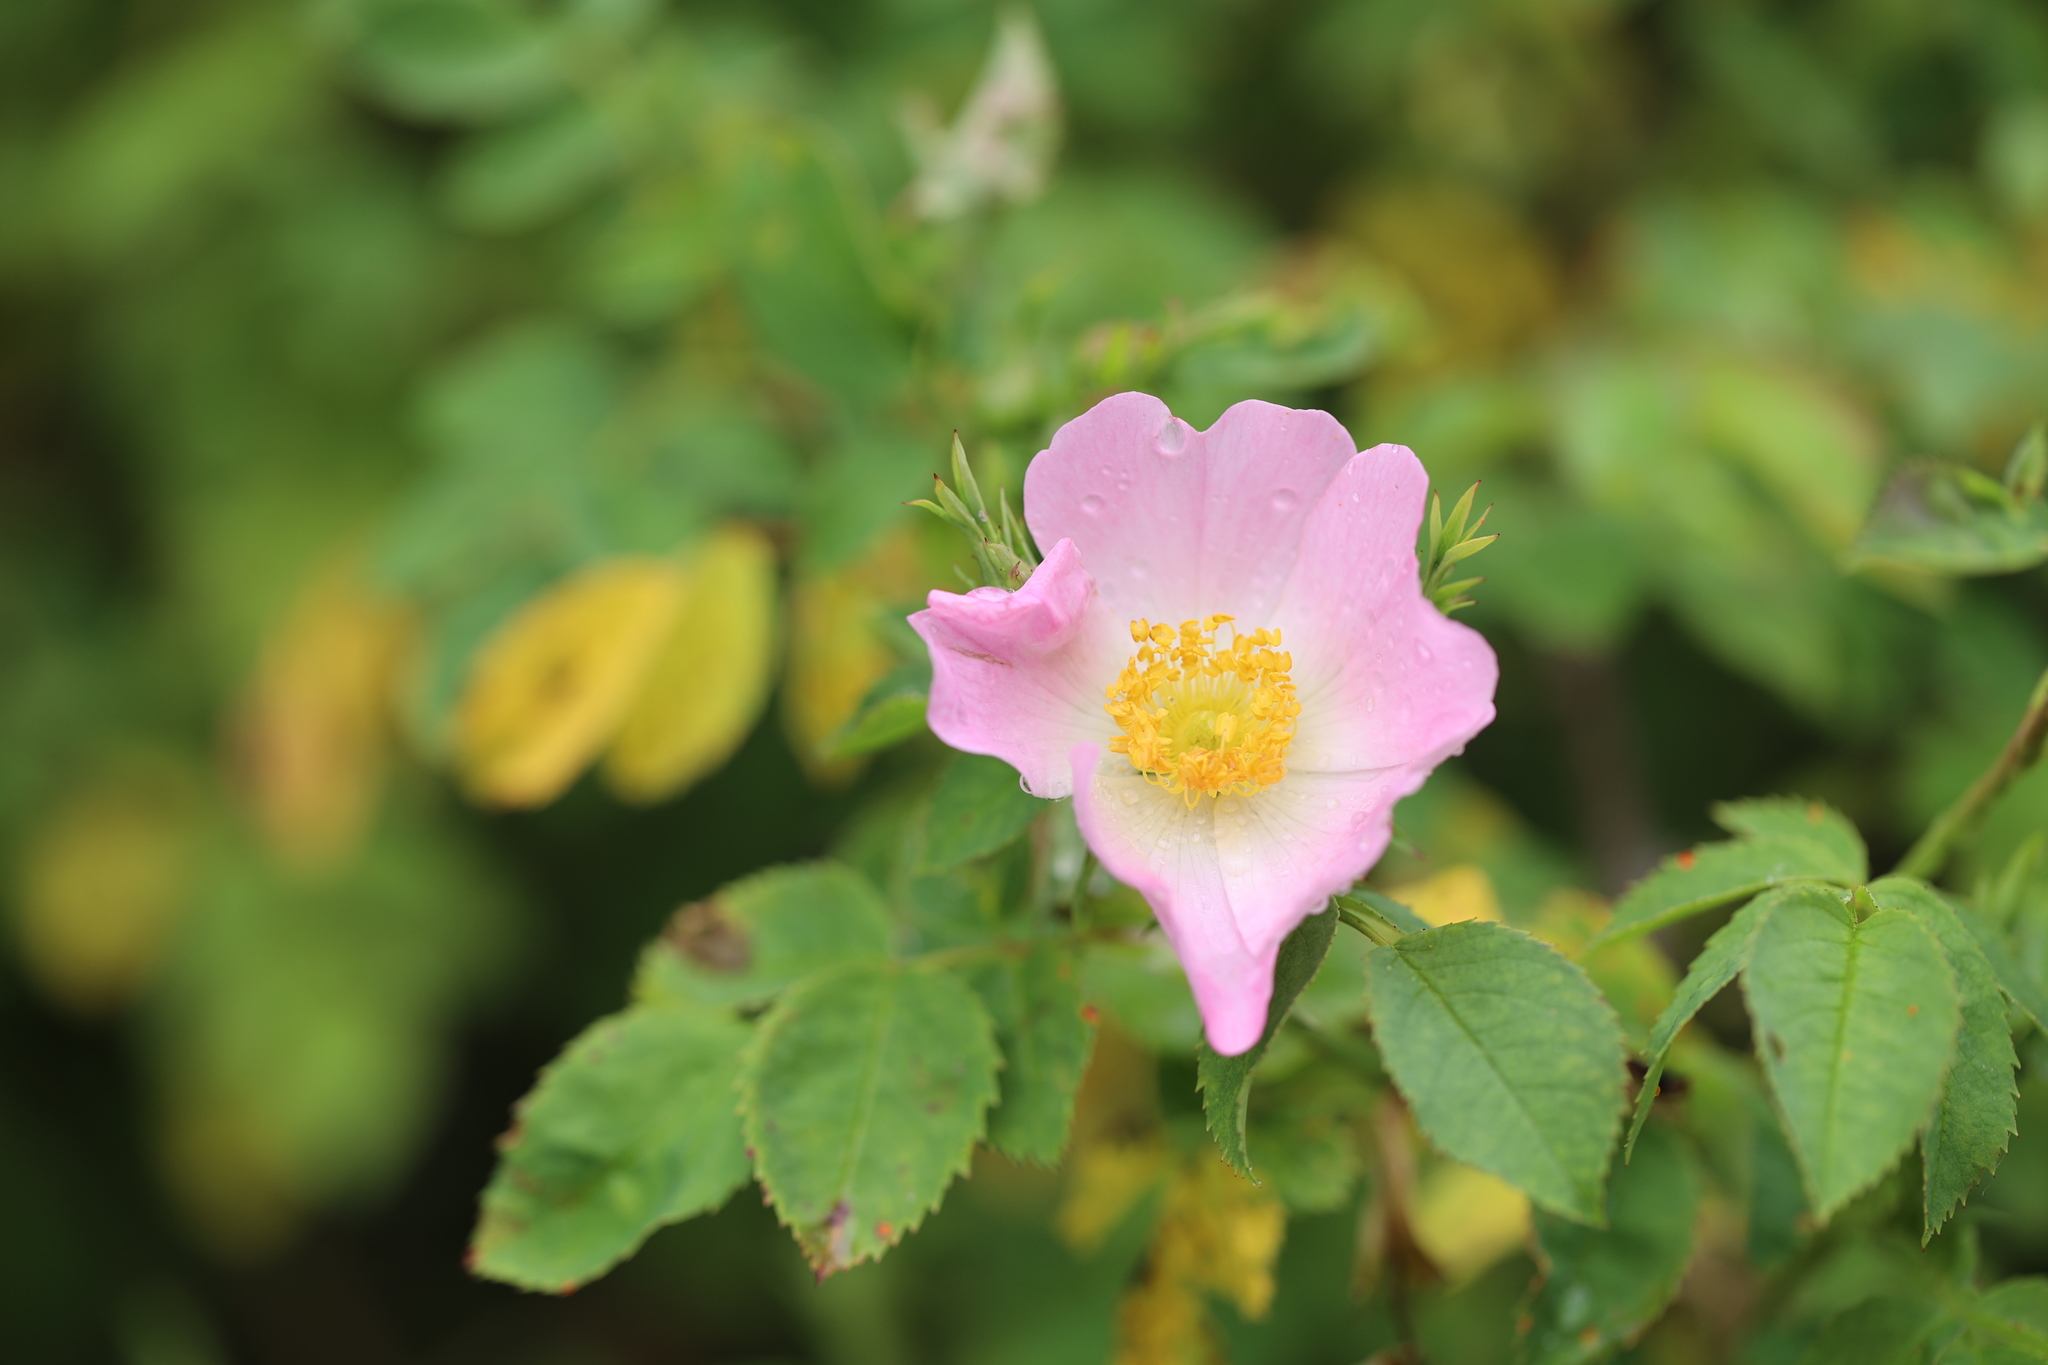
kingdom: Plantae
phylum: Tracheophyta
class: Magnoliopsida
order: Rosales
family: Rosaceae
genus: Rosa
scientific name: Rosa canina
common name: Dog rose
